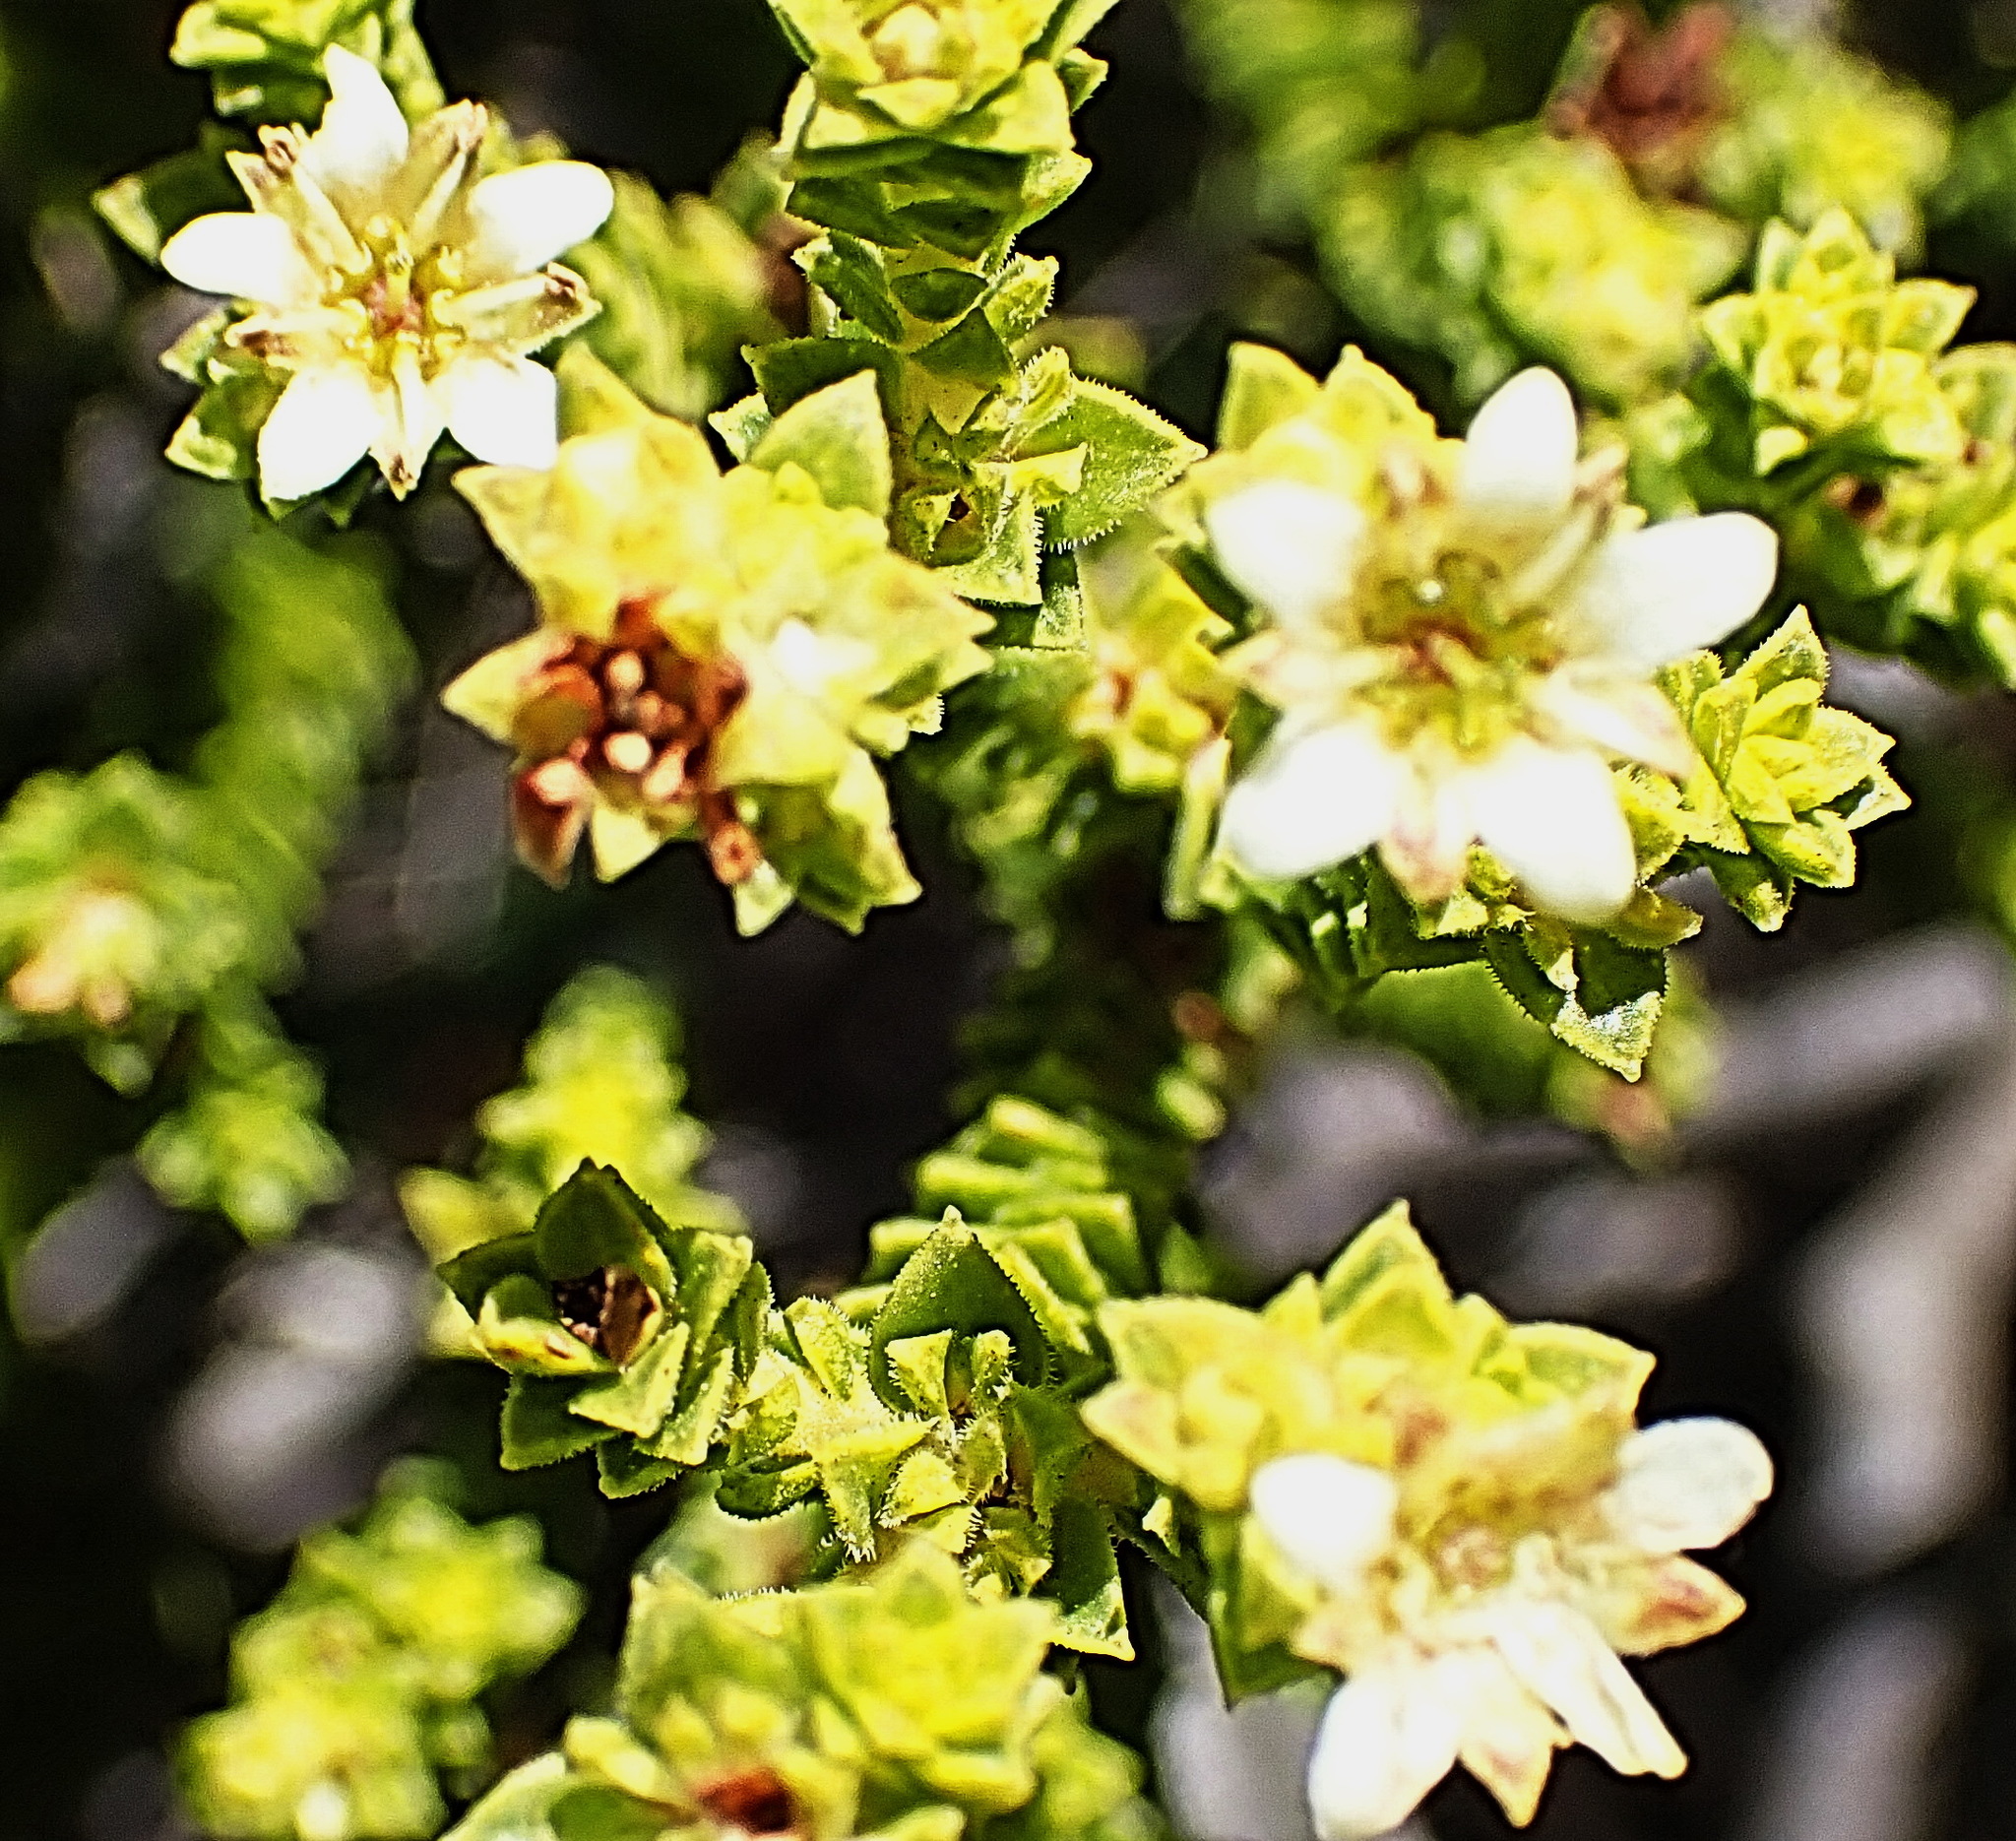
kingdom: Plantae
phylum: Tracheophyta
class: Magnoliopsida
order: Sapindales
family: Rutaceae
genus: Diosma
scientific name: Diosma echinulata
